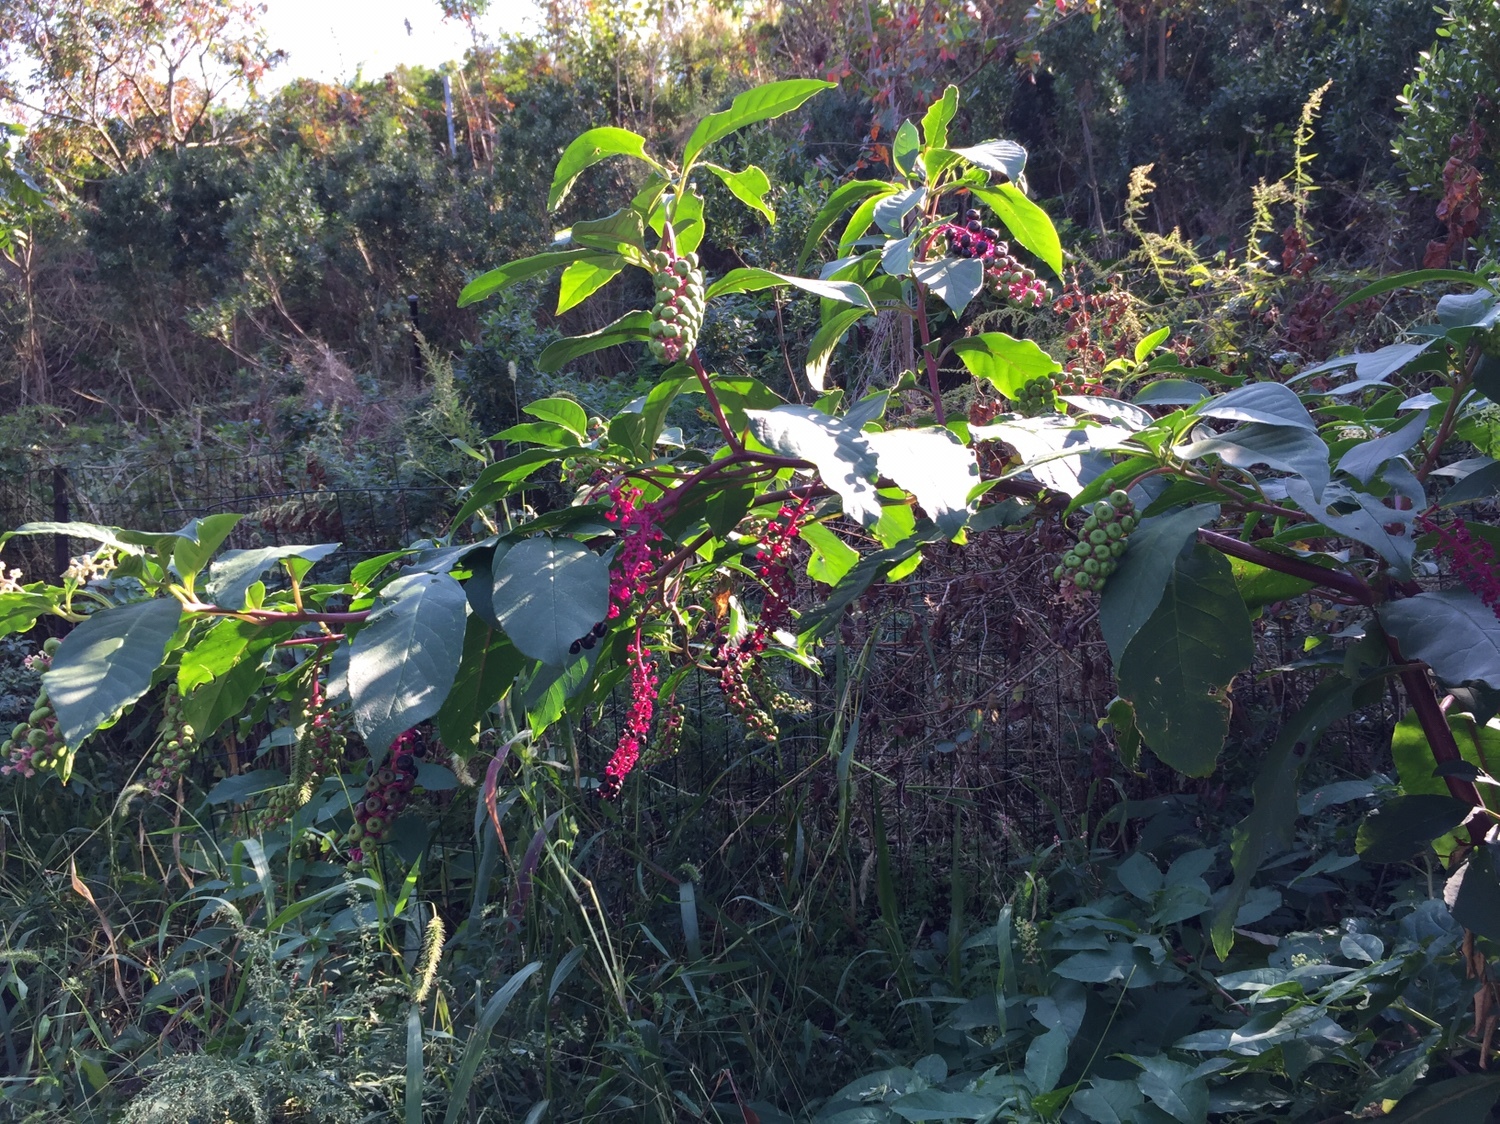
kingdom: Plantae
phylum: Tracheophyta
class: Magnoliopsida
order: Caryophyllales
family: Phytolaccaceae
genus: Phytolacca
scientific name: Phytolacca americana
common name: American pokeweed
